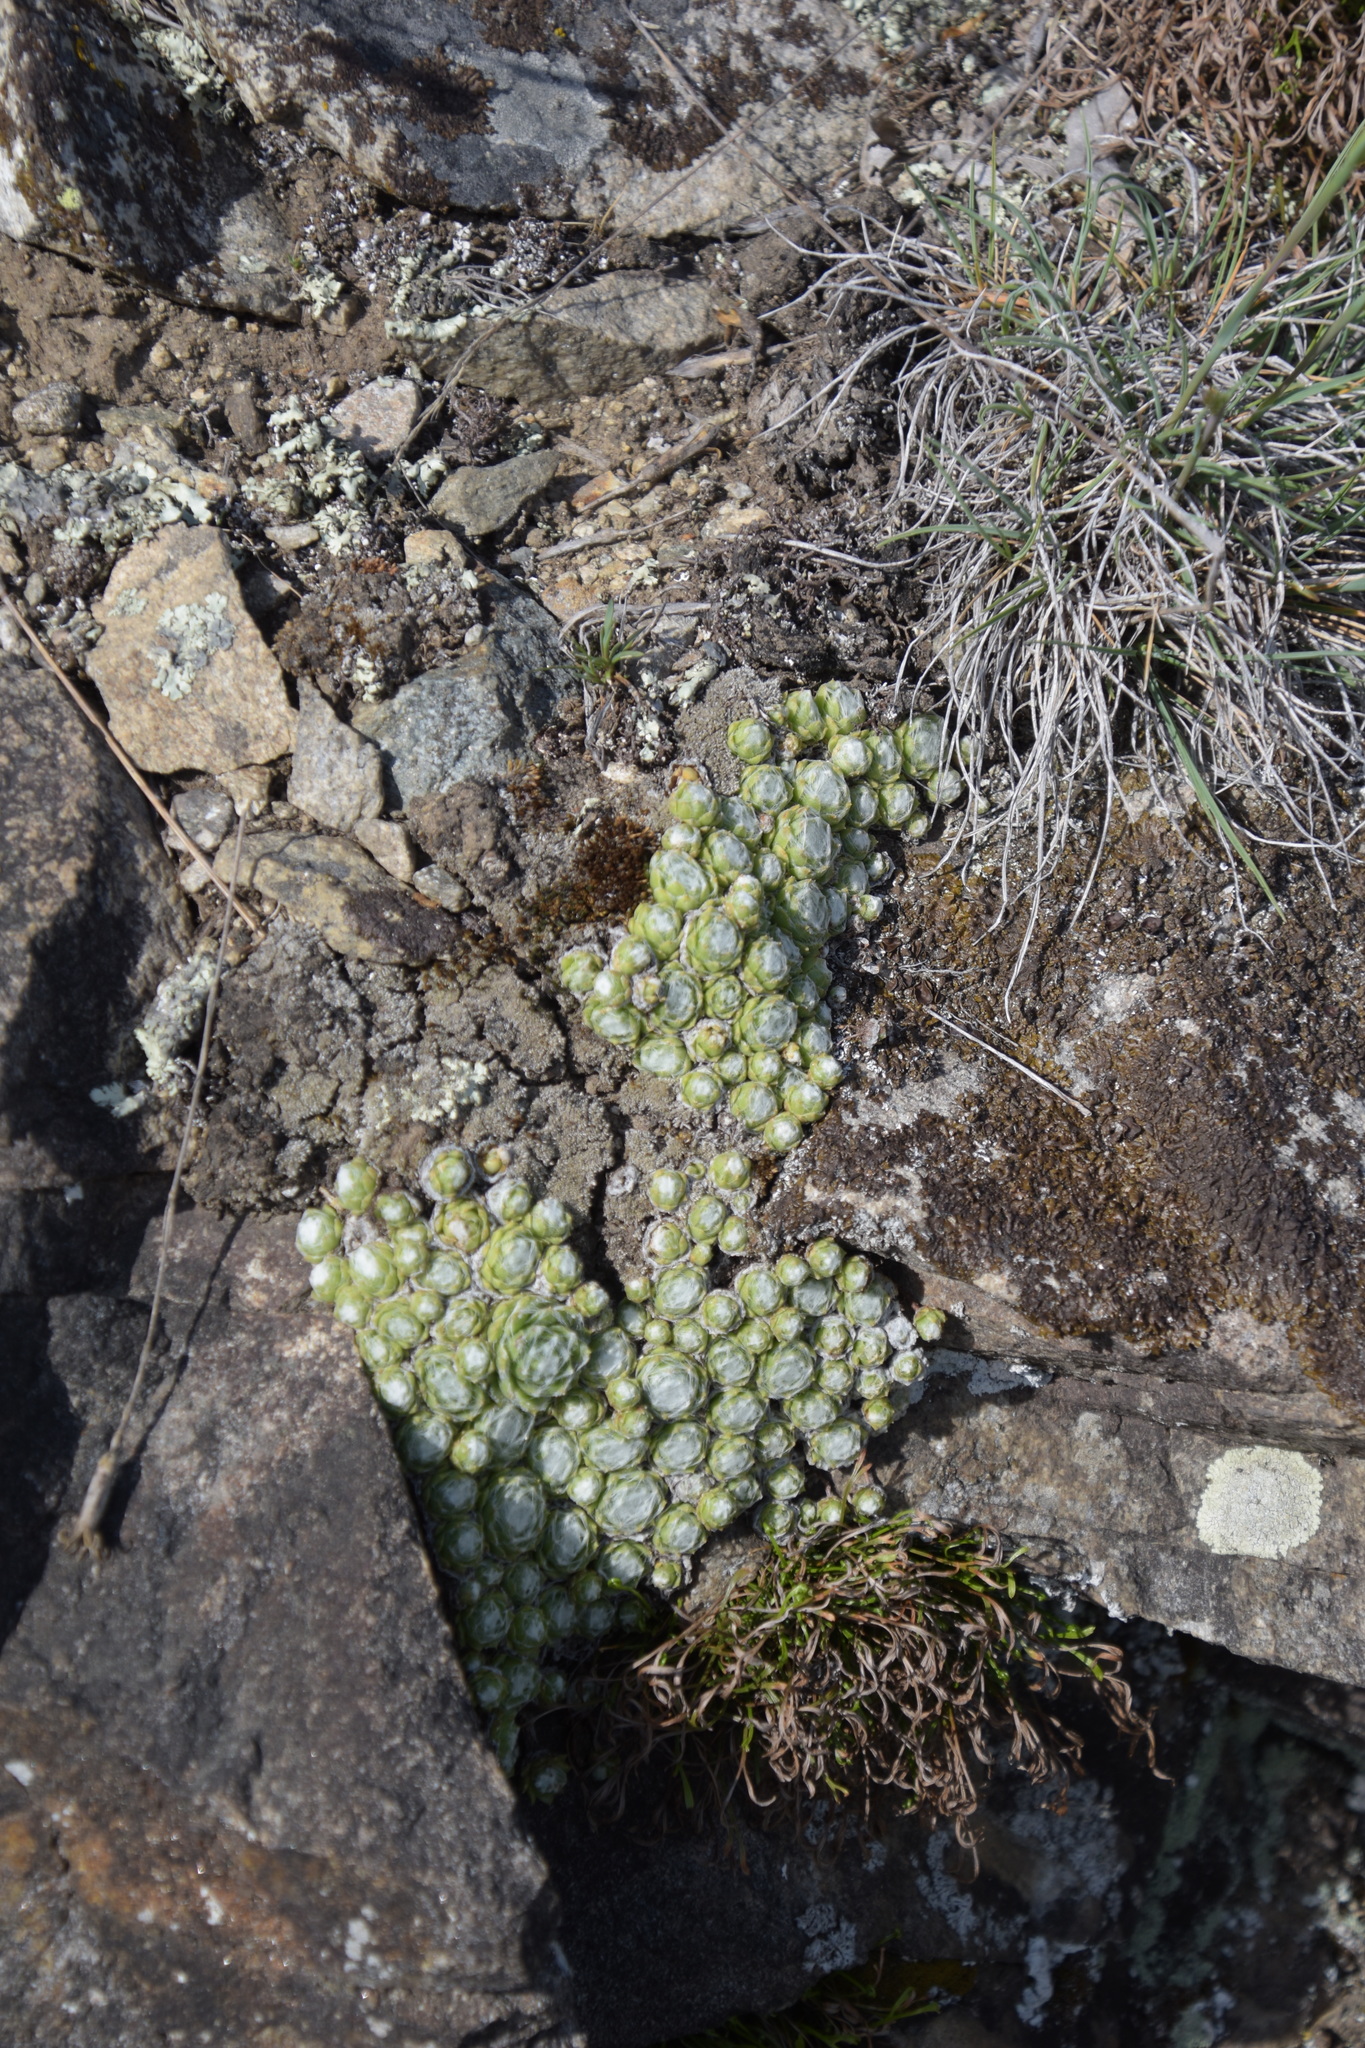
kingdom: Plantae
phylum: Tracheophyta
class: Magnoliopsida
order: Saxifragales
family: Crassulaceae
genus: Sempervivum
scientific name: Sempervivum arachnoideum
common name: Cobweb house-leek
